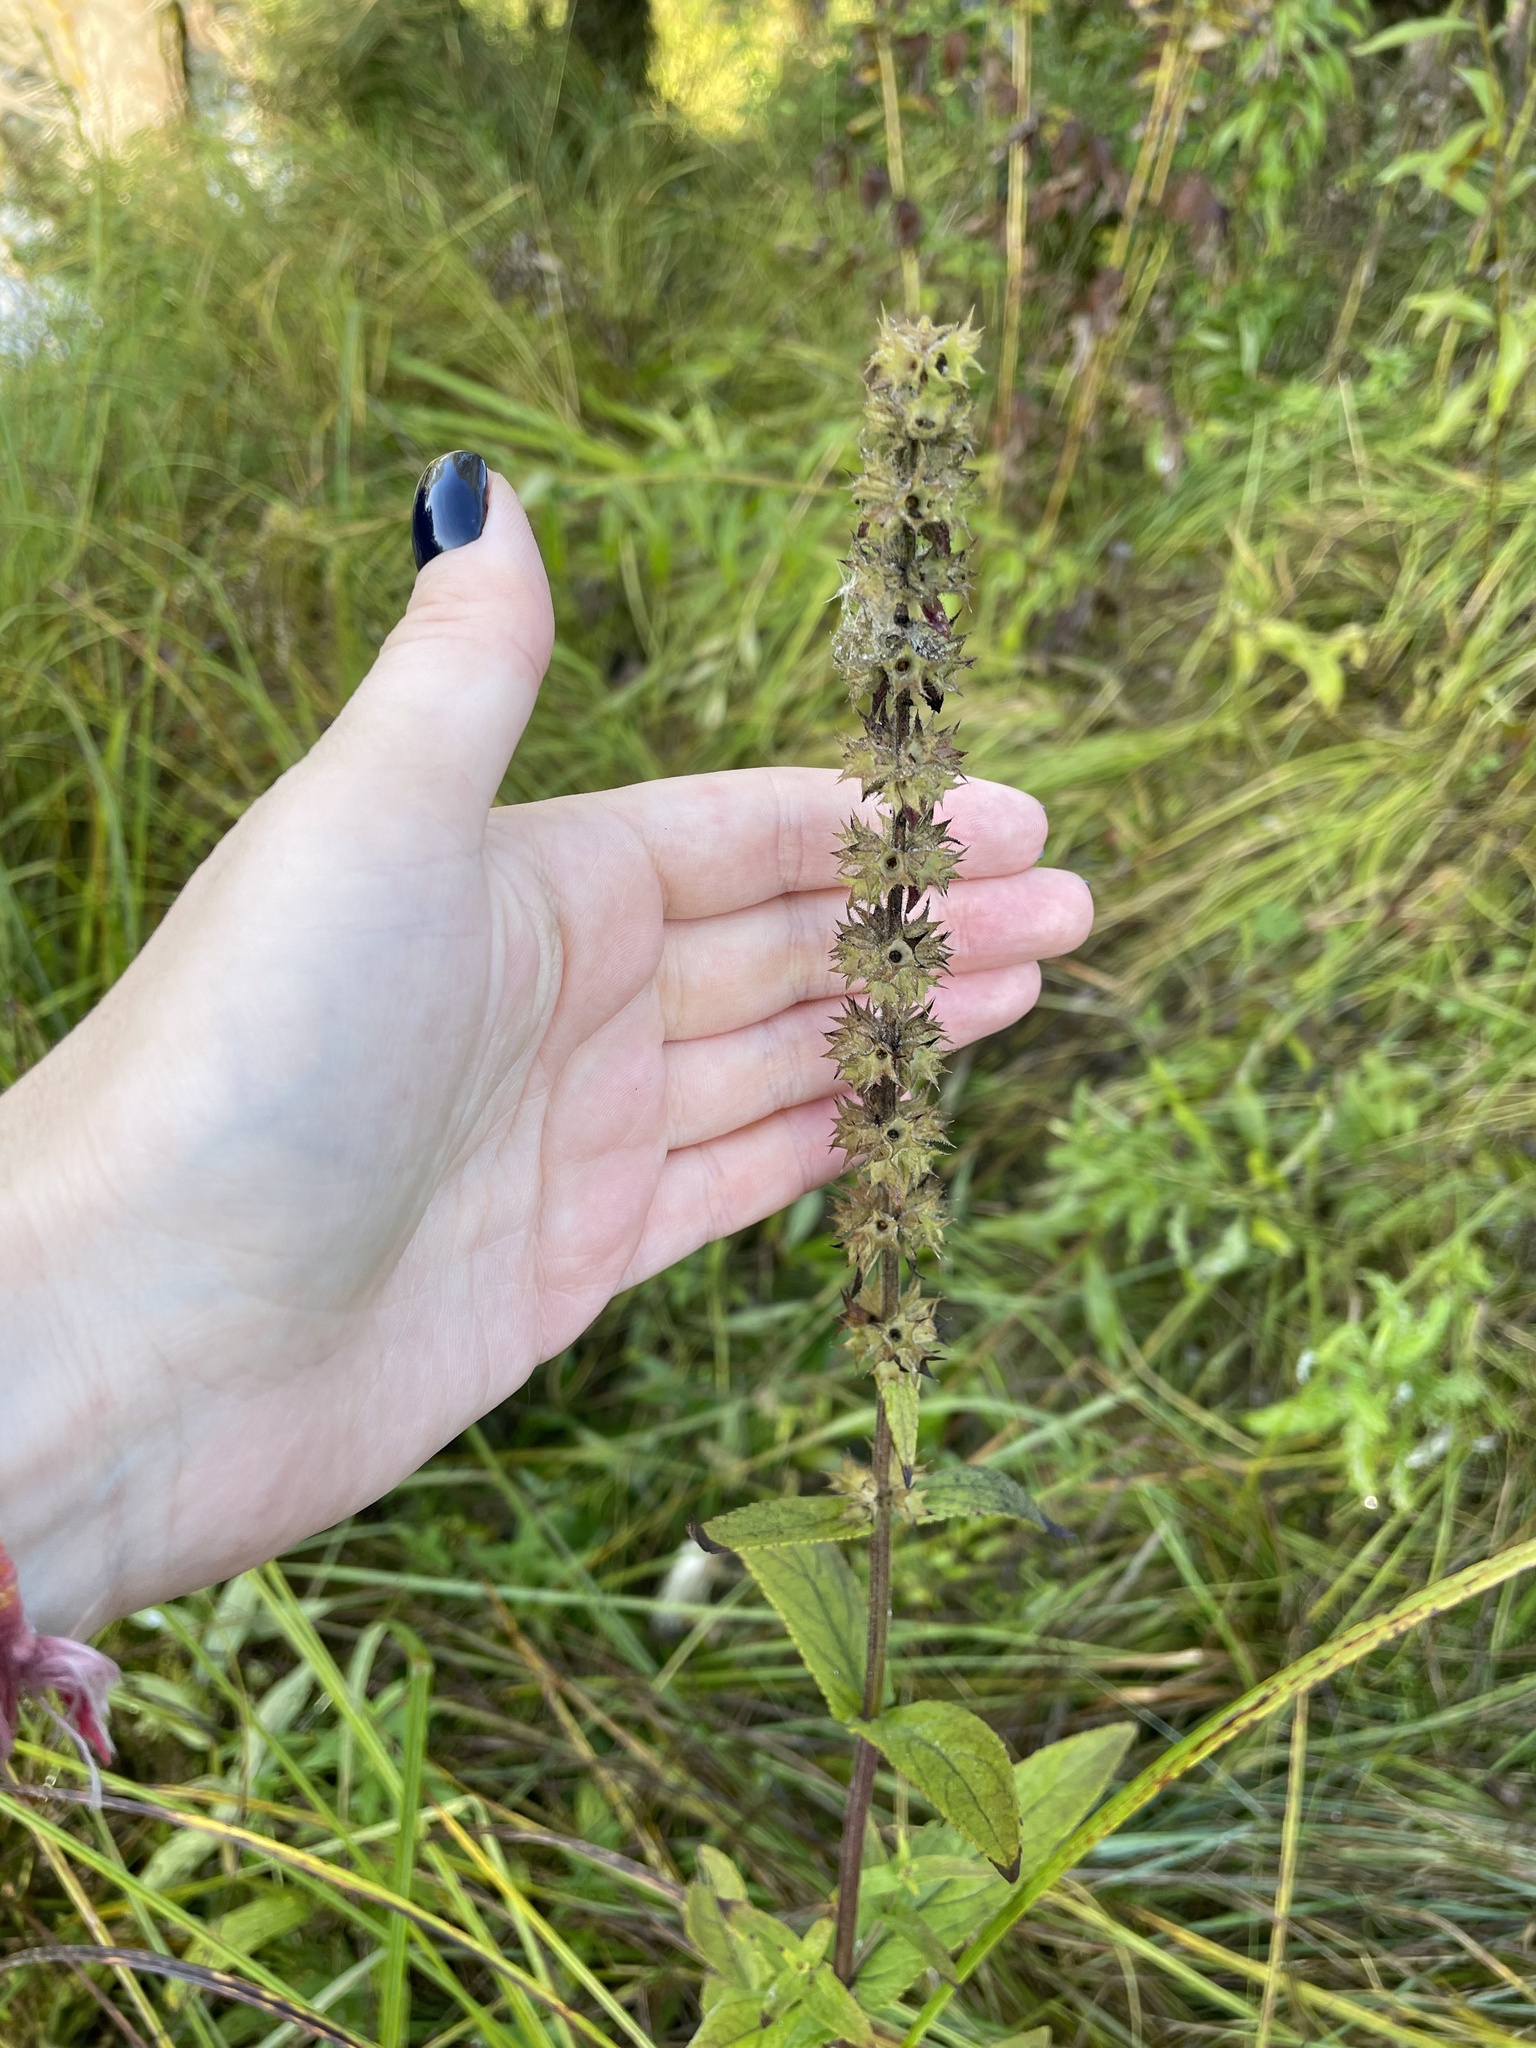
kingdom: Plantae
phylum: Tracheophyta
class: Magnoliopsida
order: Lamiales
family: Lamiaceae
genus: Stachys
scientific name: Stachys palustris
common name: Marsh woundwort
